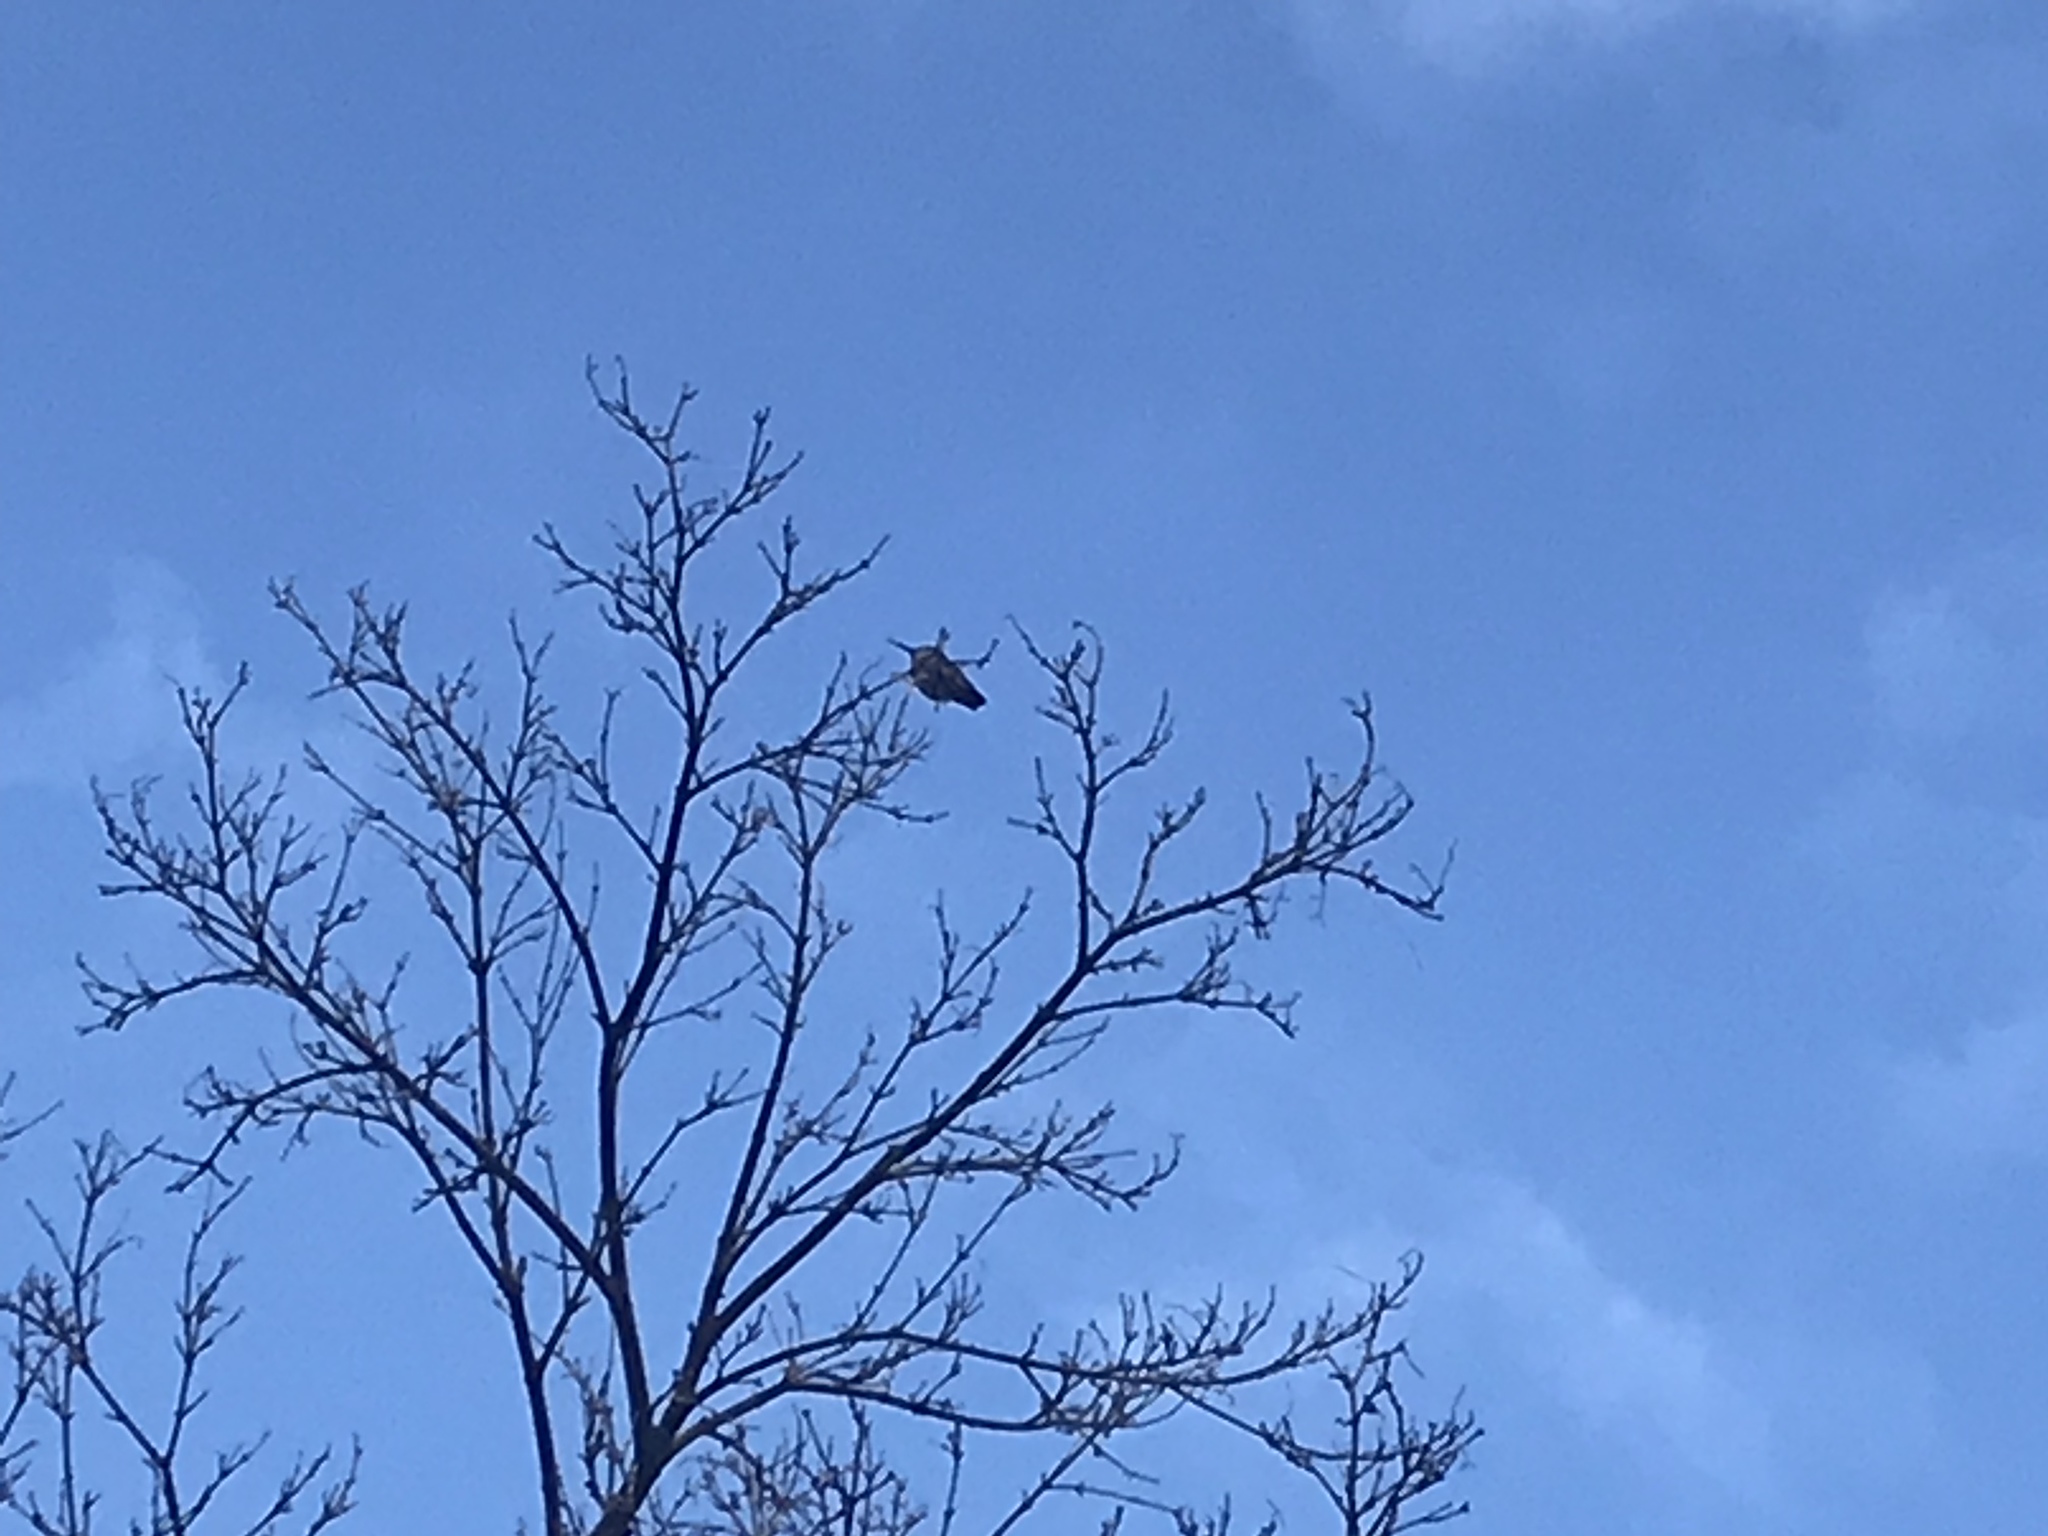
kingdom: Animalia
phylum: Chordata
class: Aves
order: Apodiformes
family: Trochilidae
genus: Calypte
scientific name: Calypte anna
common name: Anna's hummingbird
